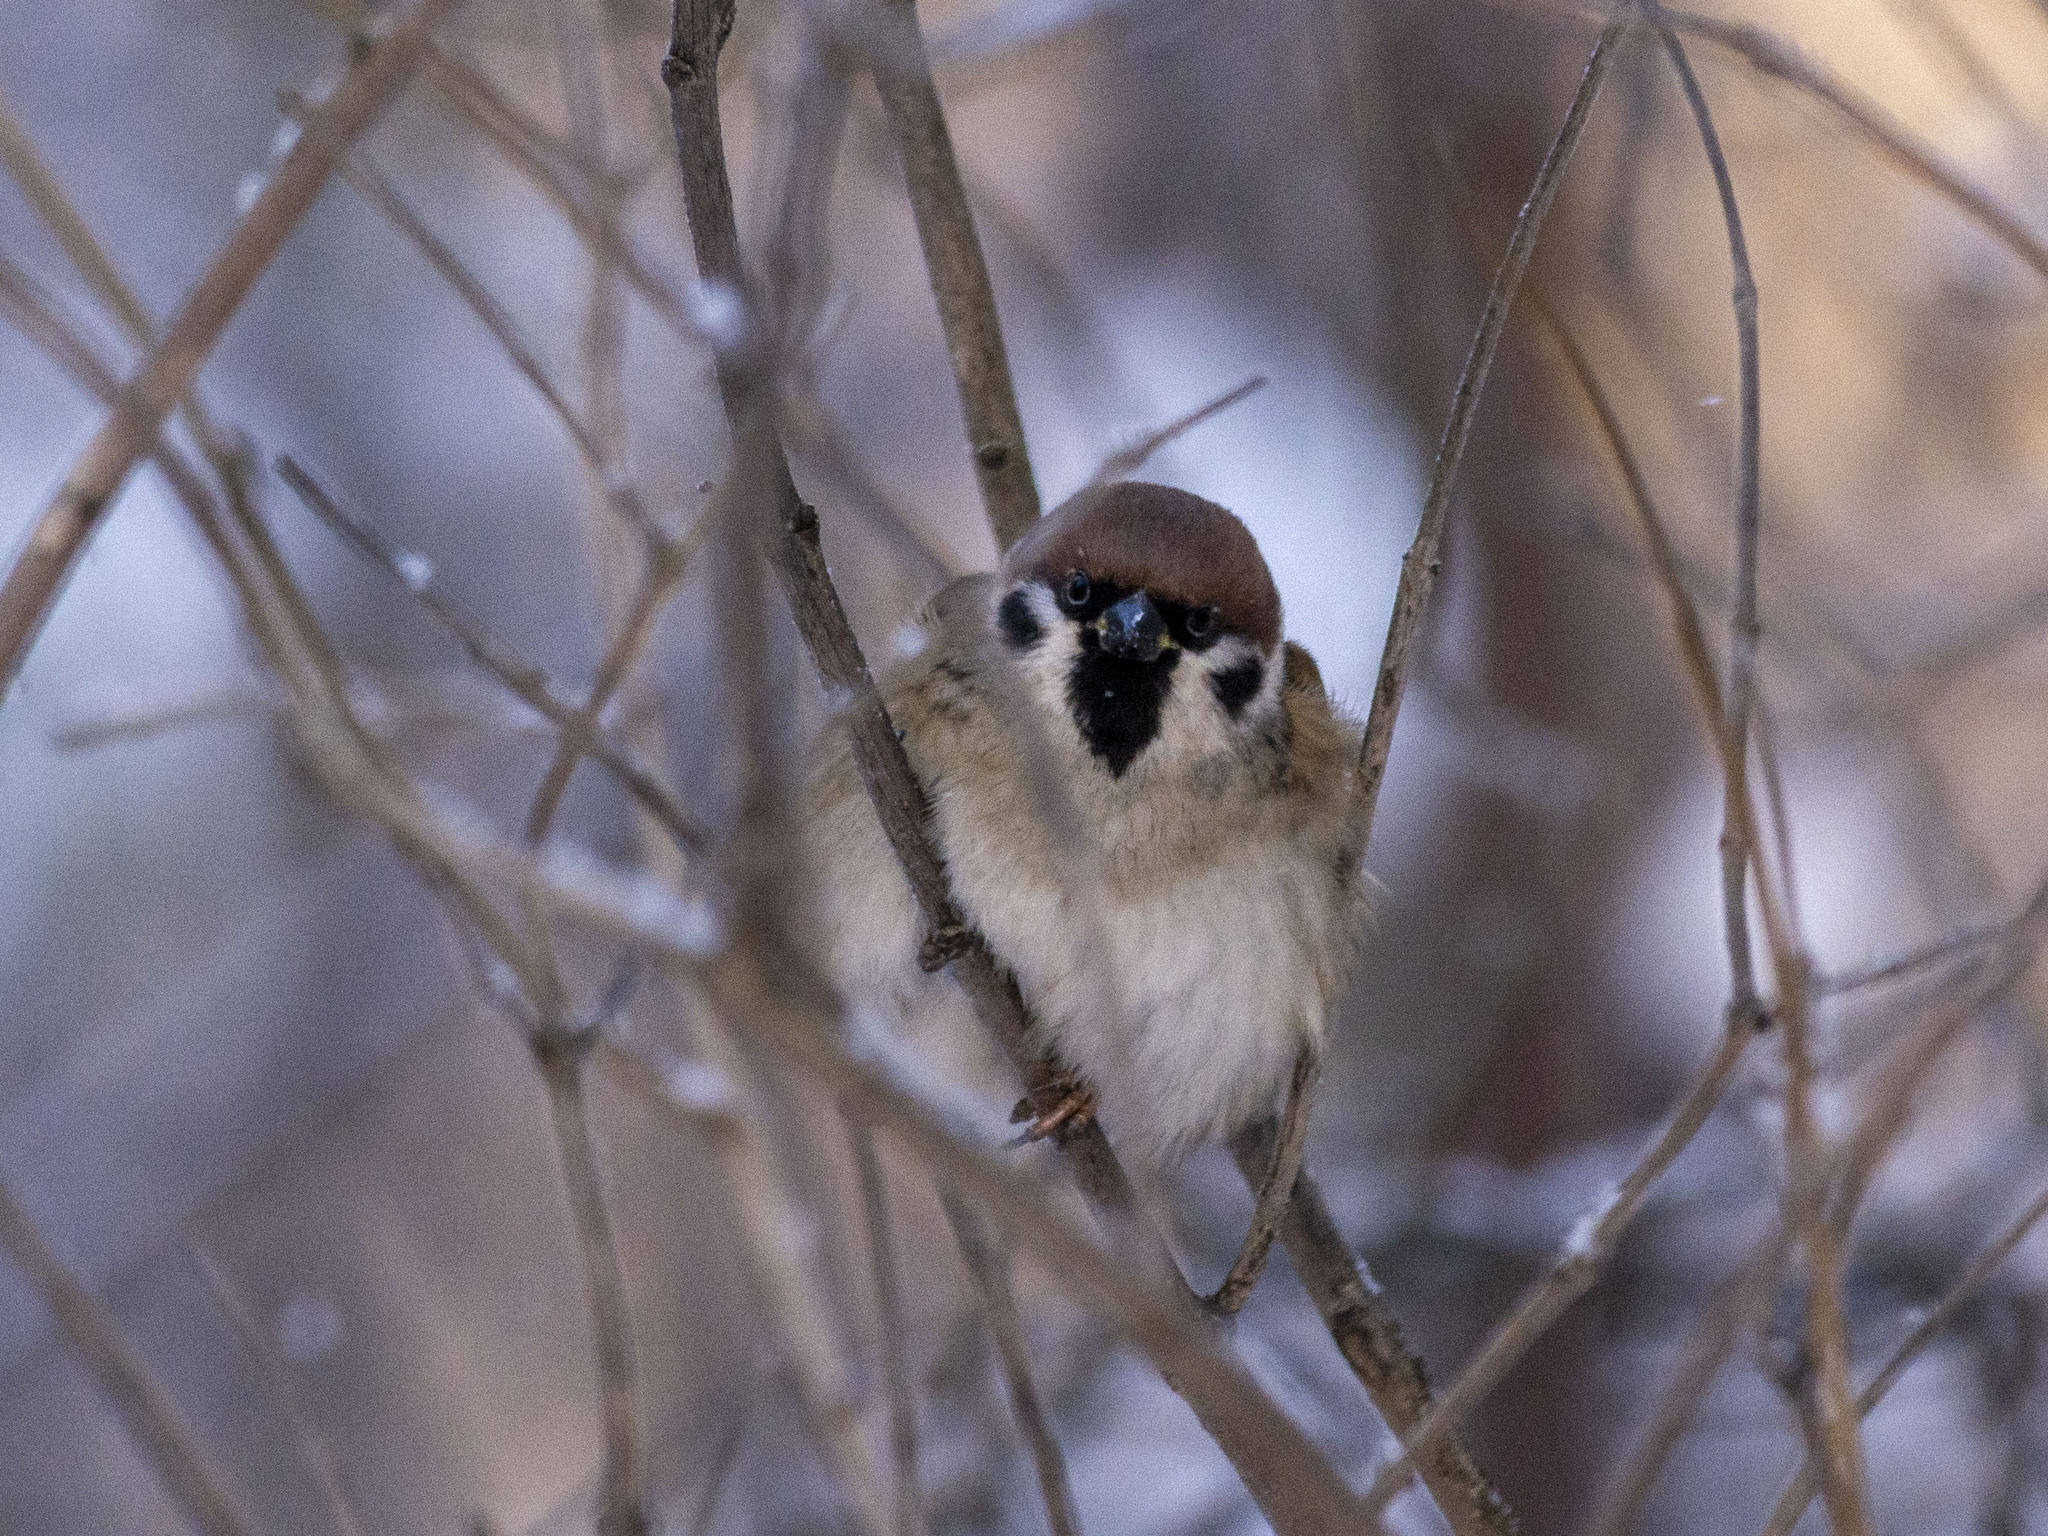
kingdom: Animalia
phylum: Chordata
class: Aves
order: Passeriformes
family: Passeridae
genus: Passer
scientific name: Passer montanus
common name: Eurasian tree sparrow
